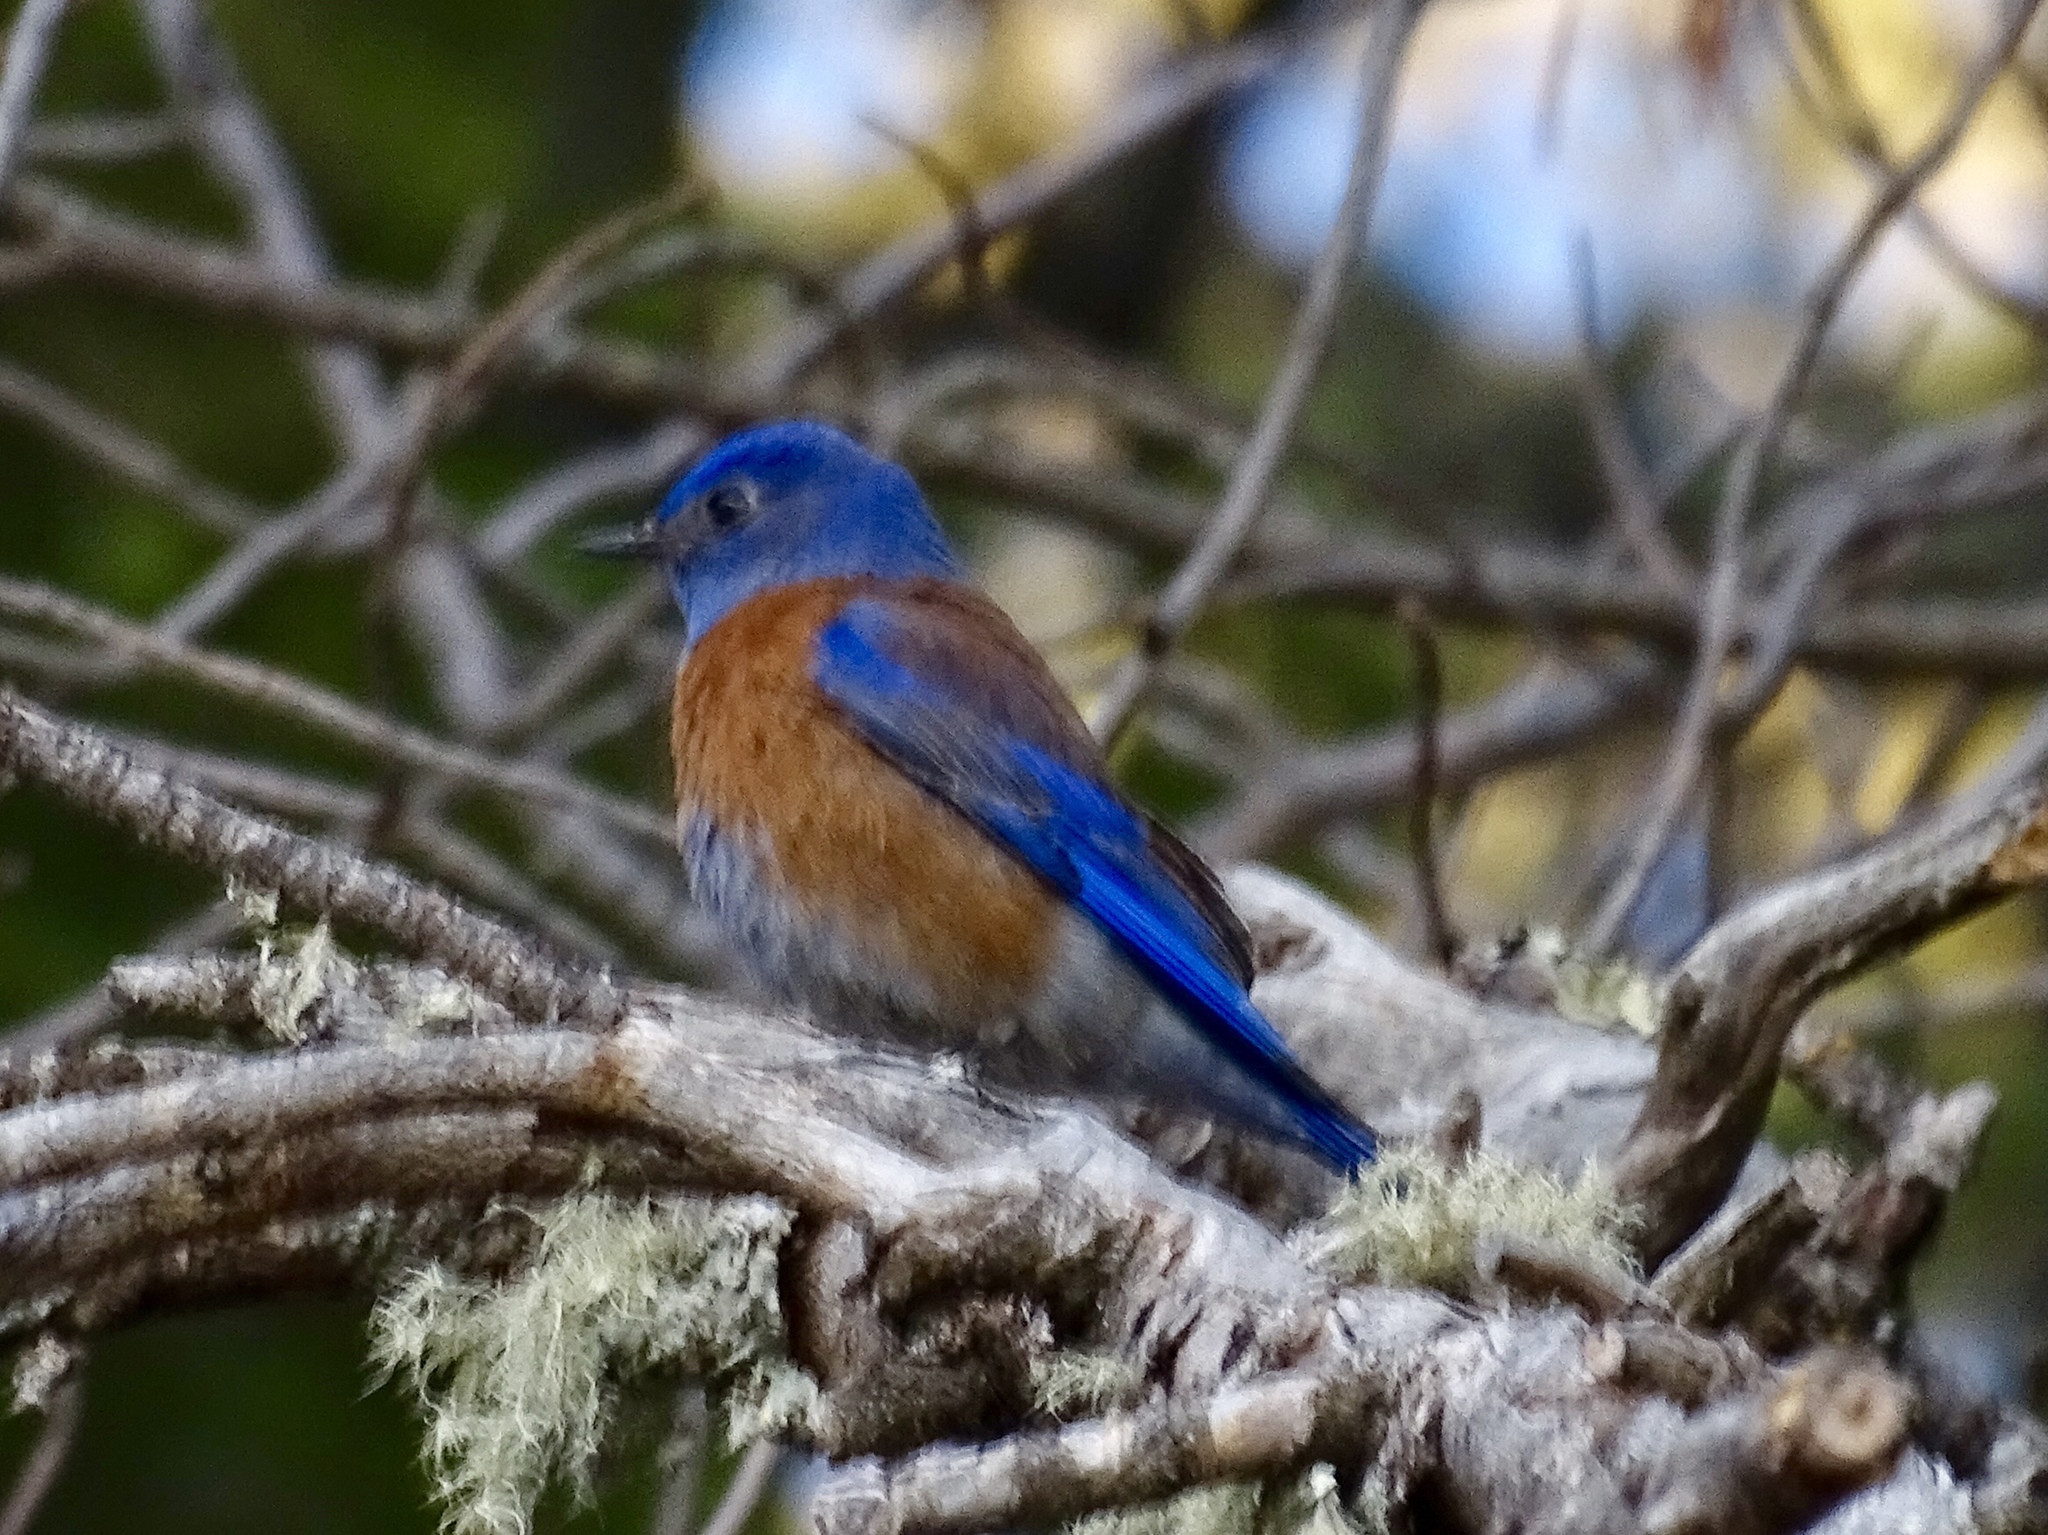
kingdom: Animalia
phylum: Chordata
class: Aves
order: Passeriformes
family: Turdidae
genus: Sialia
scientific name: Sialia mexicana
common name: Western bluebird
